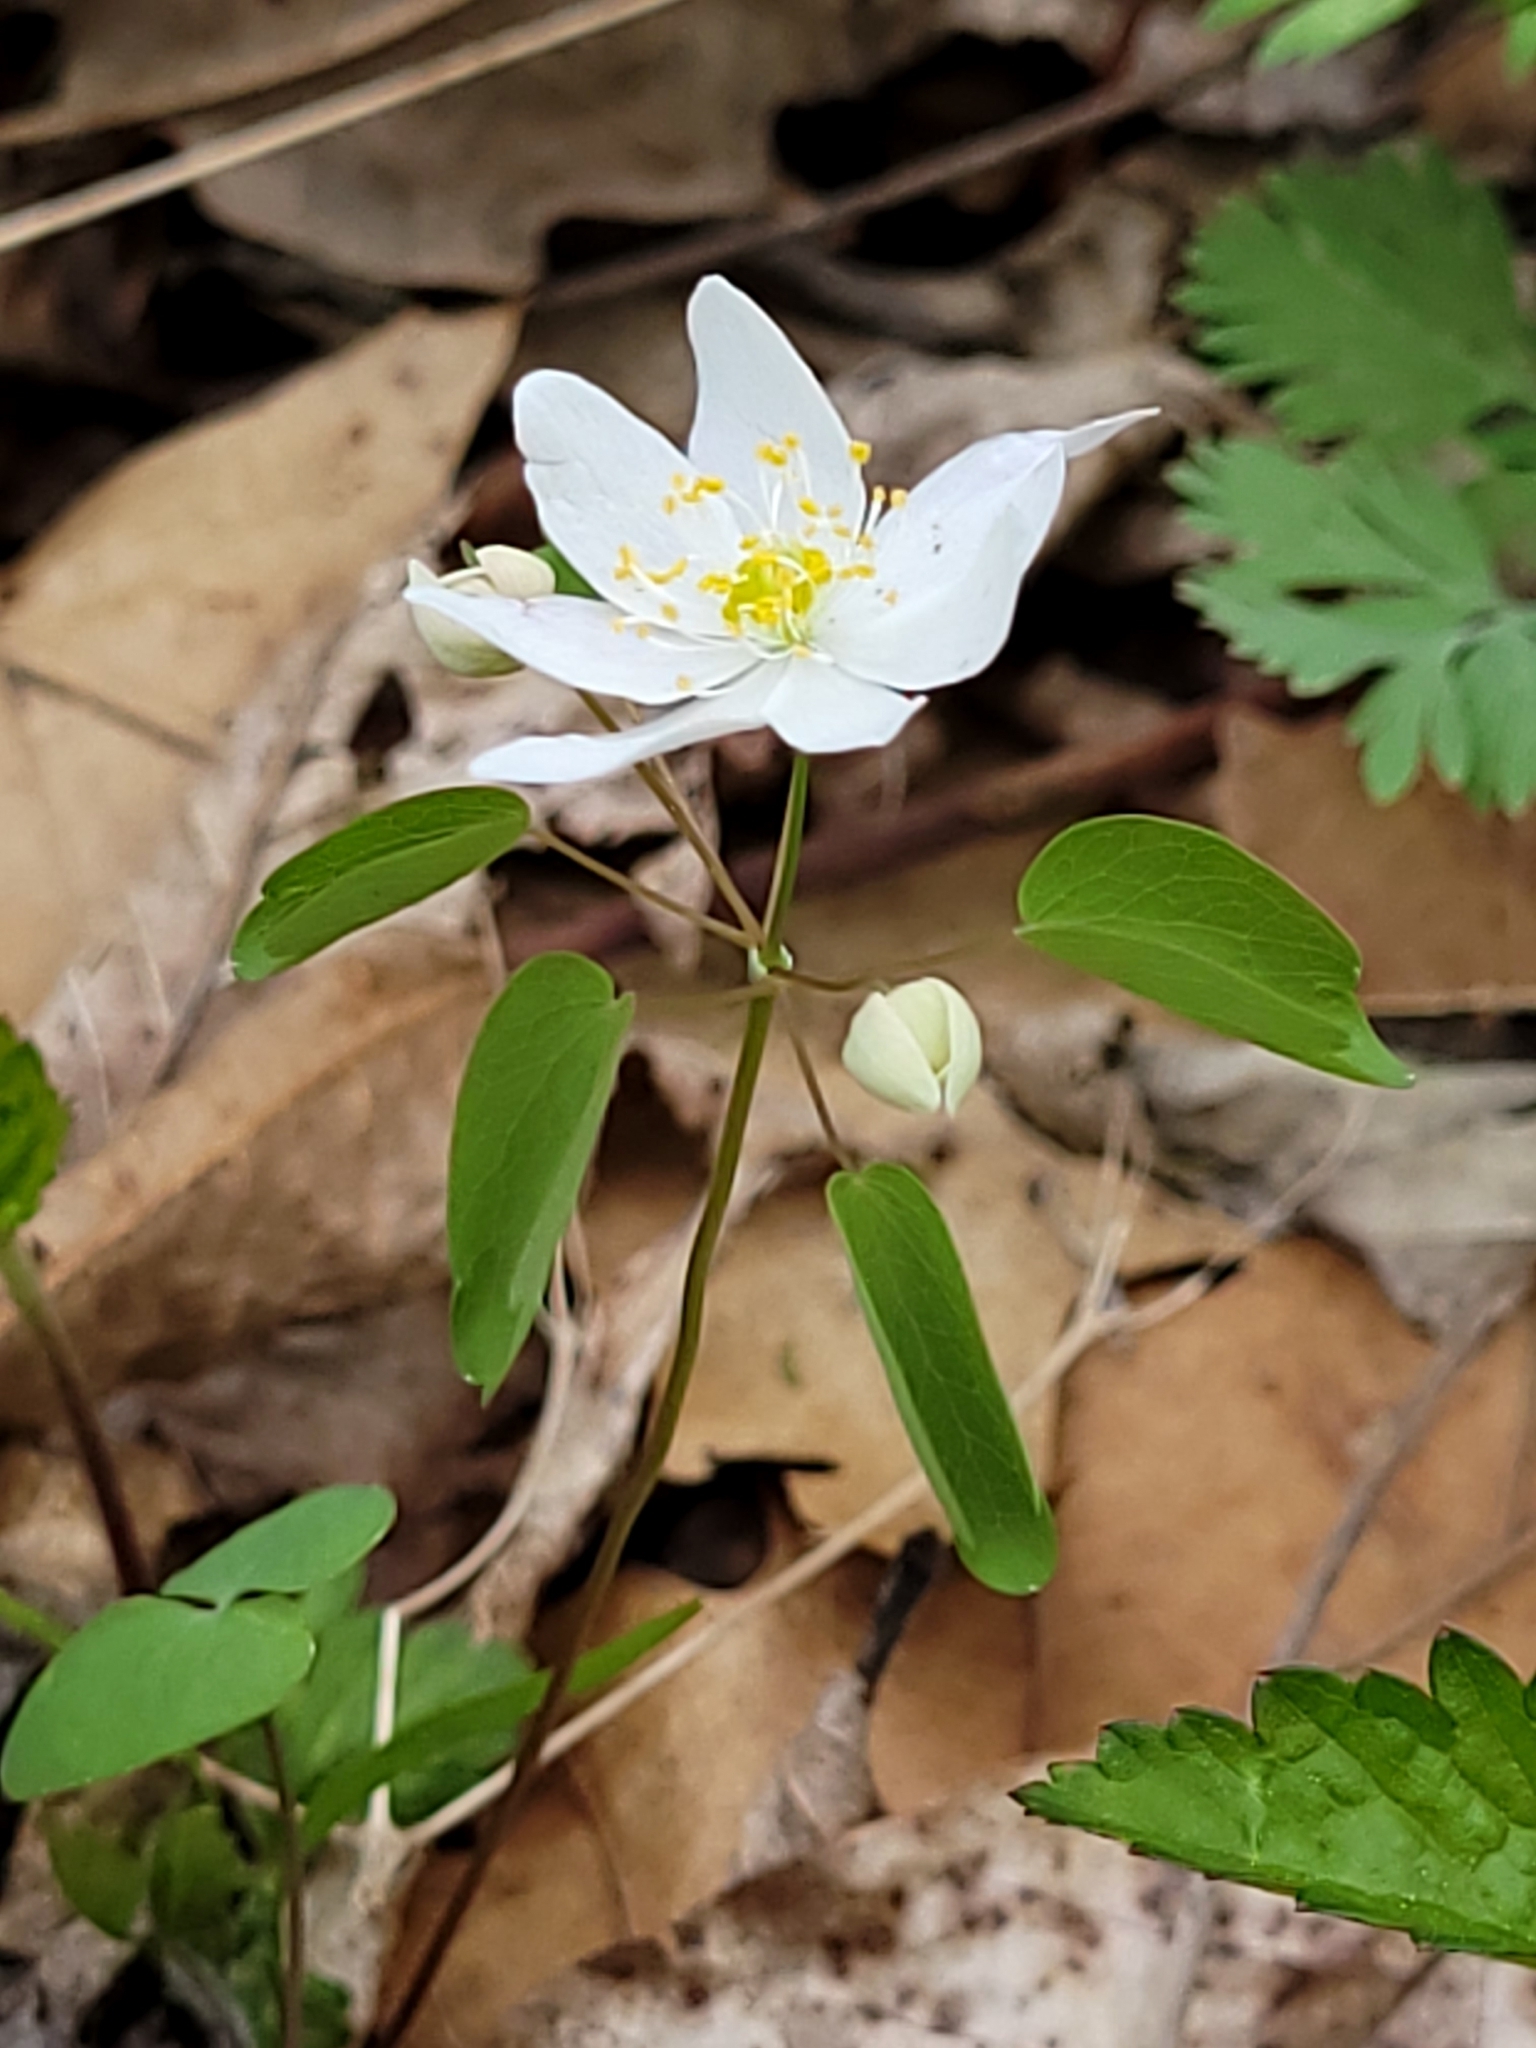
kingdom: Plantae
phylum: Tracheophyta
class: Magnoliopsida
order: Ranunculales
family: Ranunculaceae
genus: Thalictrum
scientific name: Thalictrum thalictroides
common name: Rue-anemone
